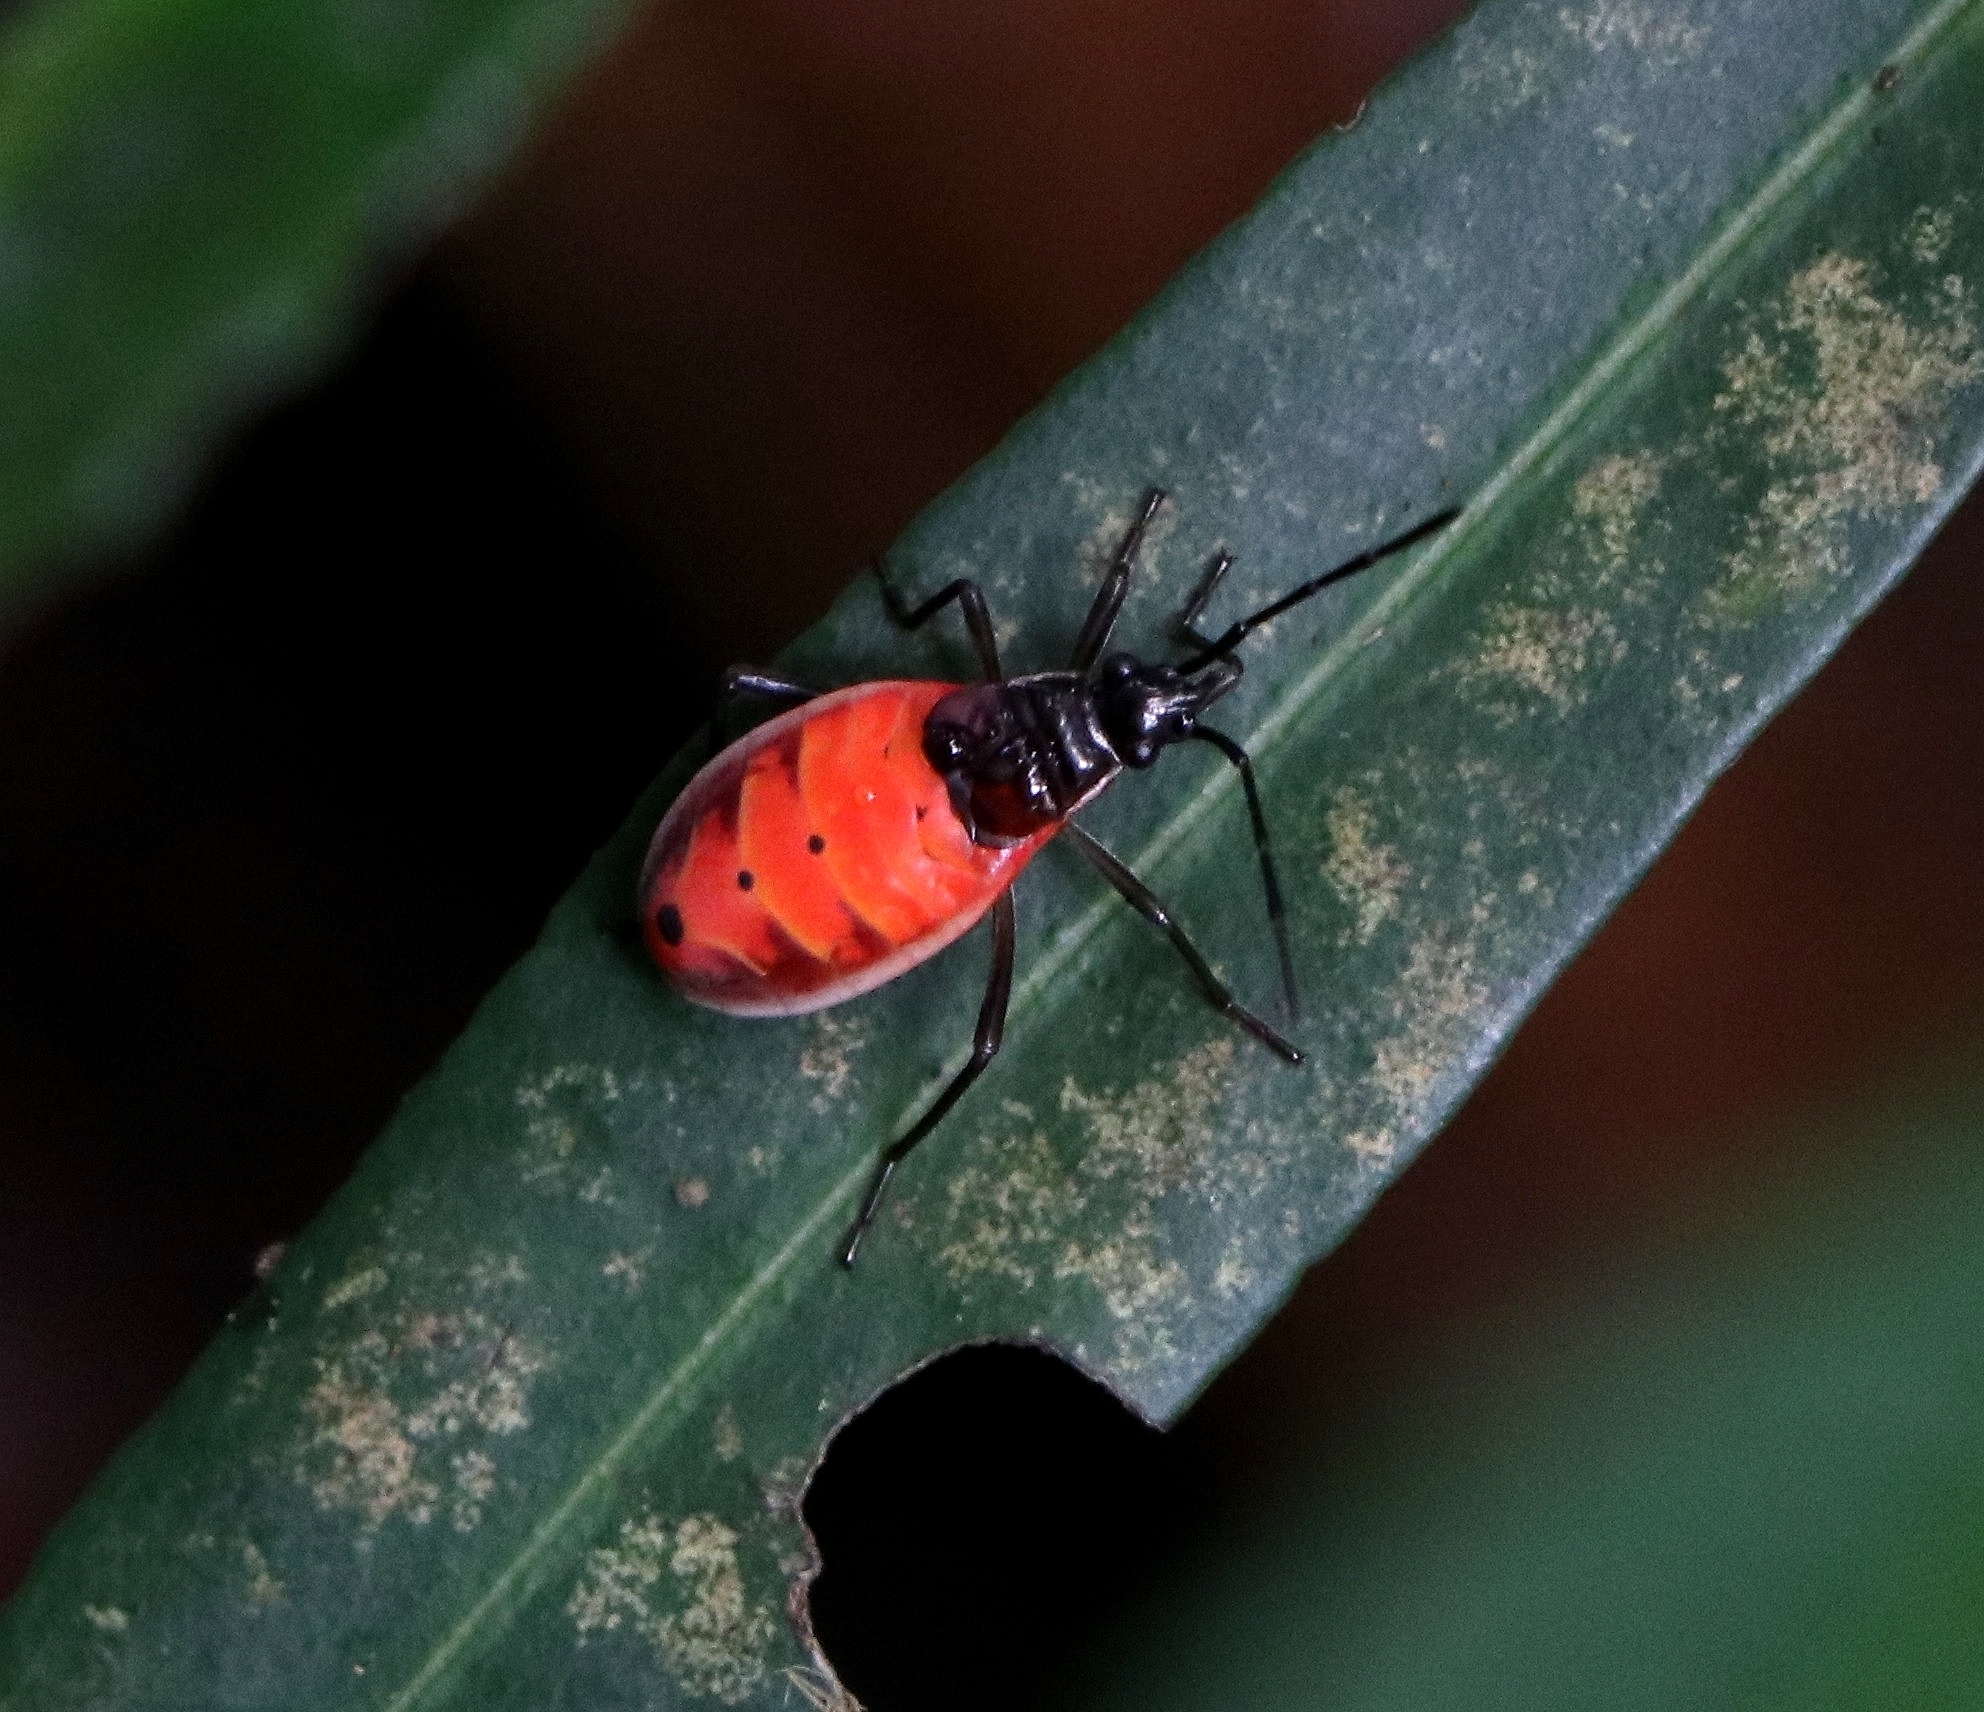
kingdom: Animalia
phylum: Arthropoda
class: Insecta
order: Hemiptera
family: Pyrrhocoridae
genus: Melamphaus
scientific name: Melamphaus
